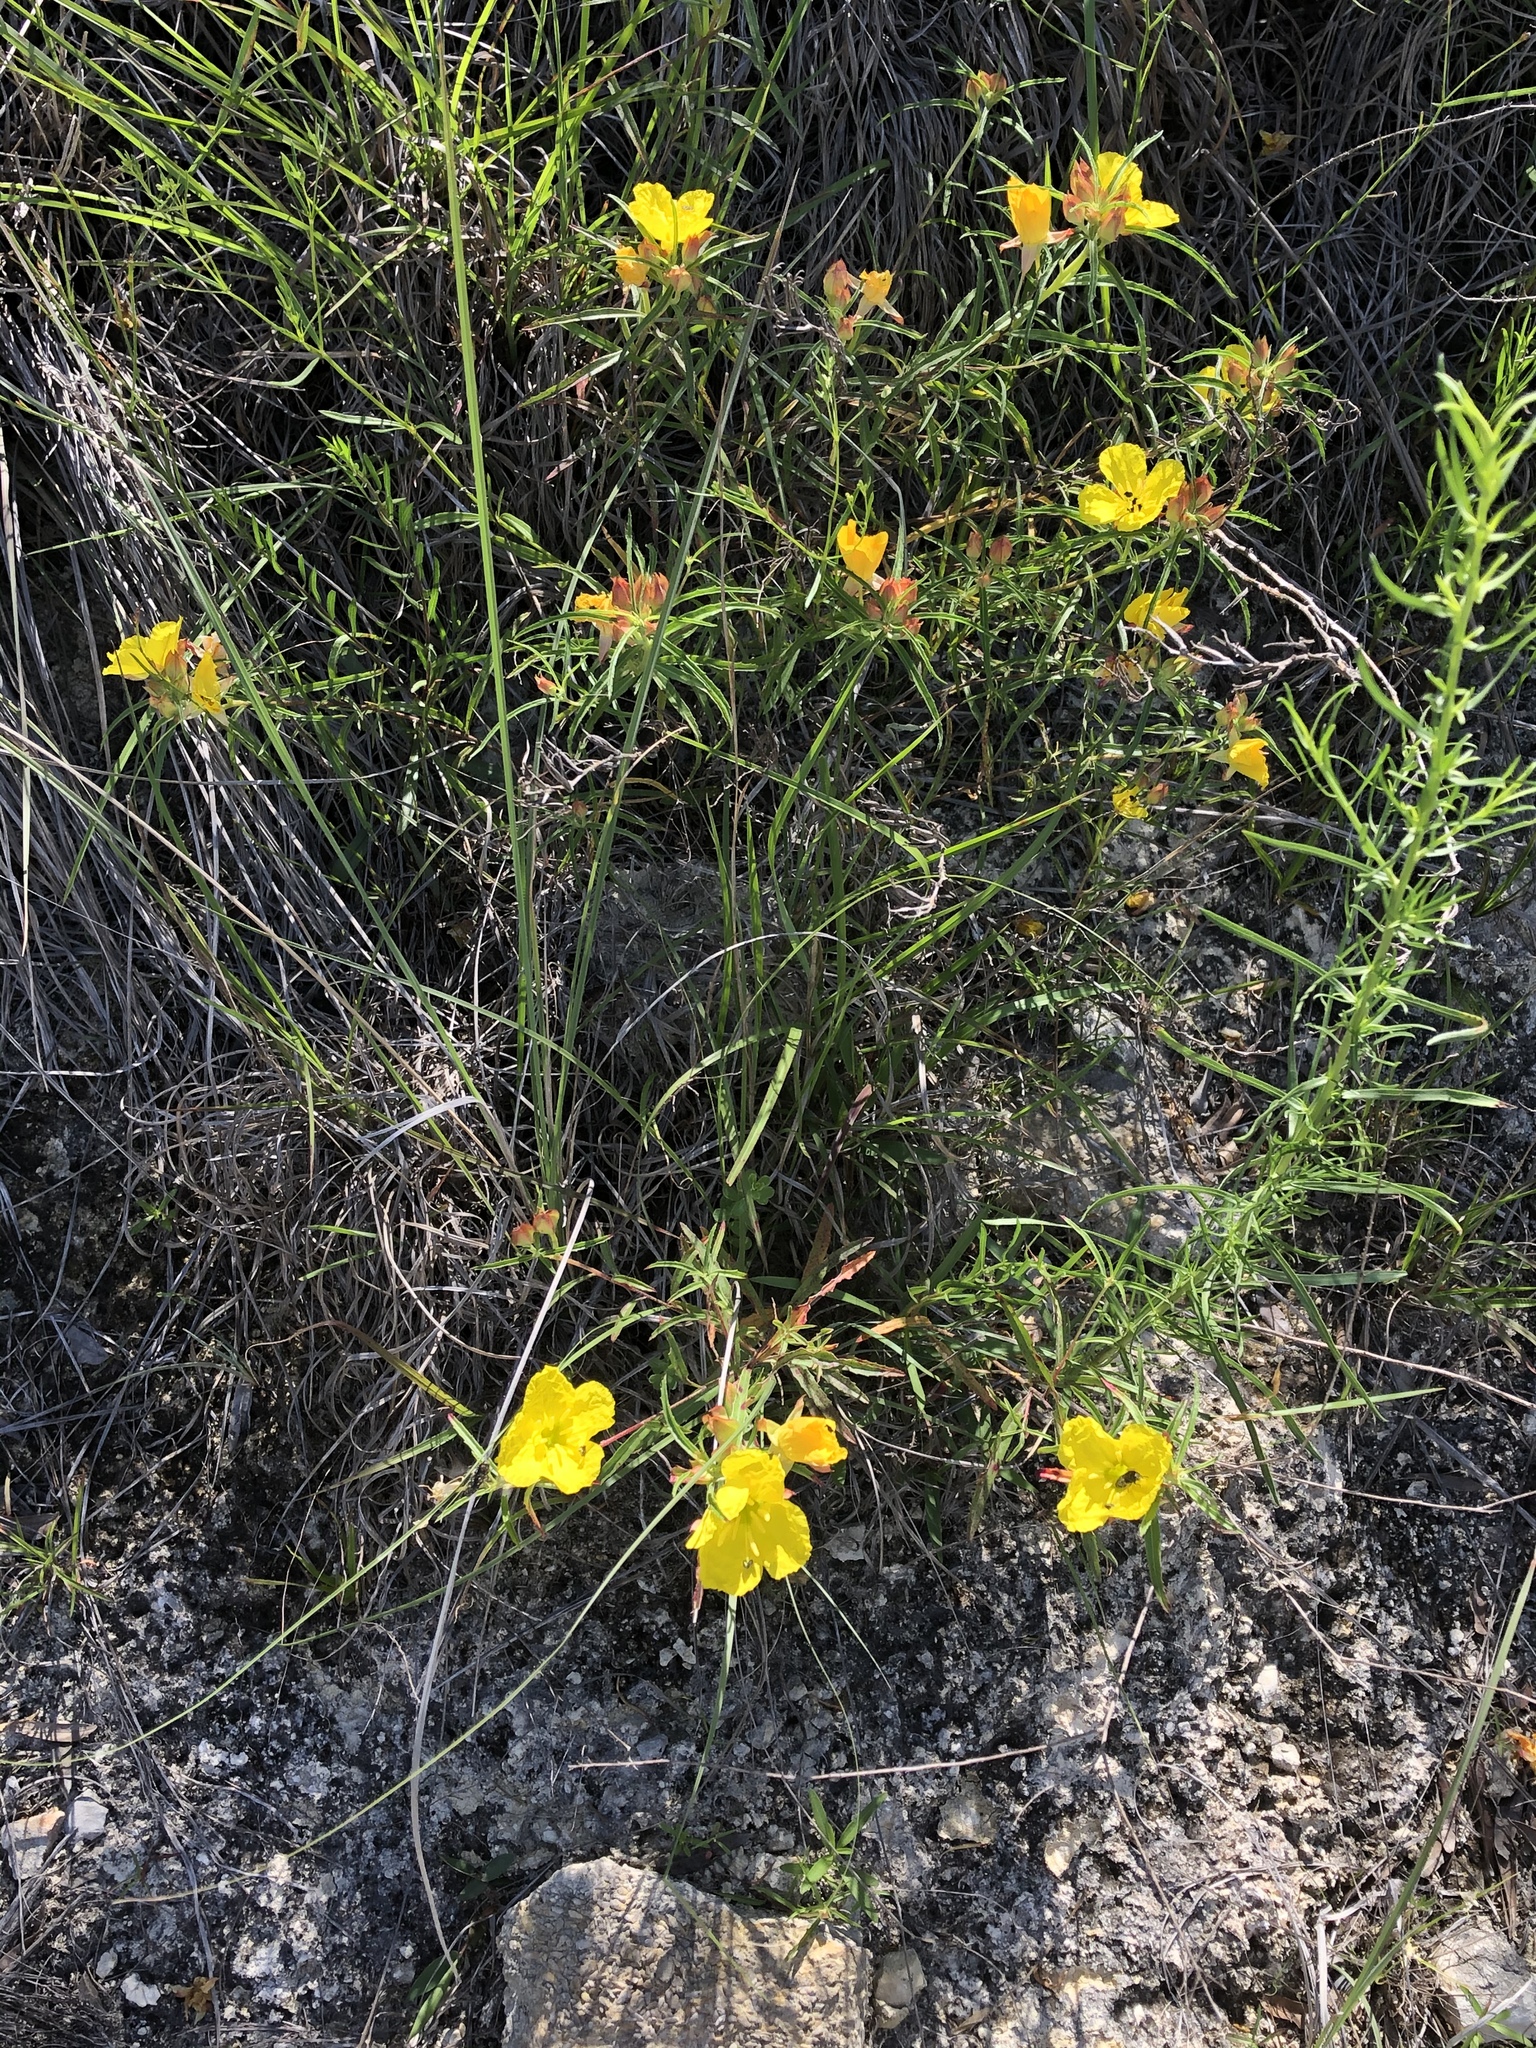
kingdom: Plantae
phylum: Tracheophyta
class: Magnoliopsida
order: Myrtales
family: Onagraceae
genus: Oenothera
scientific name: Oenothera
